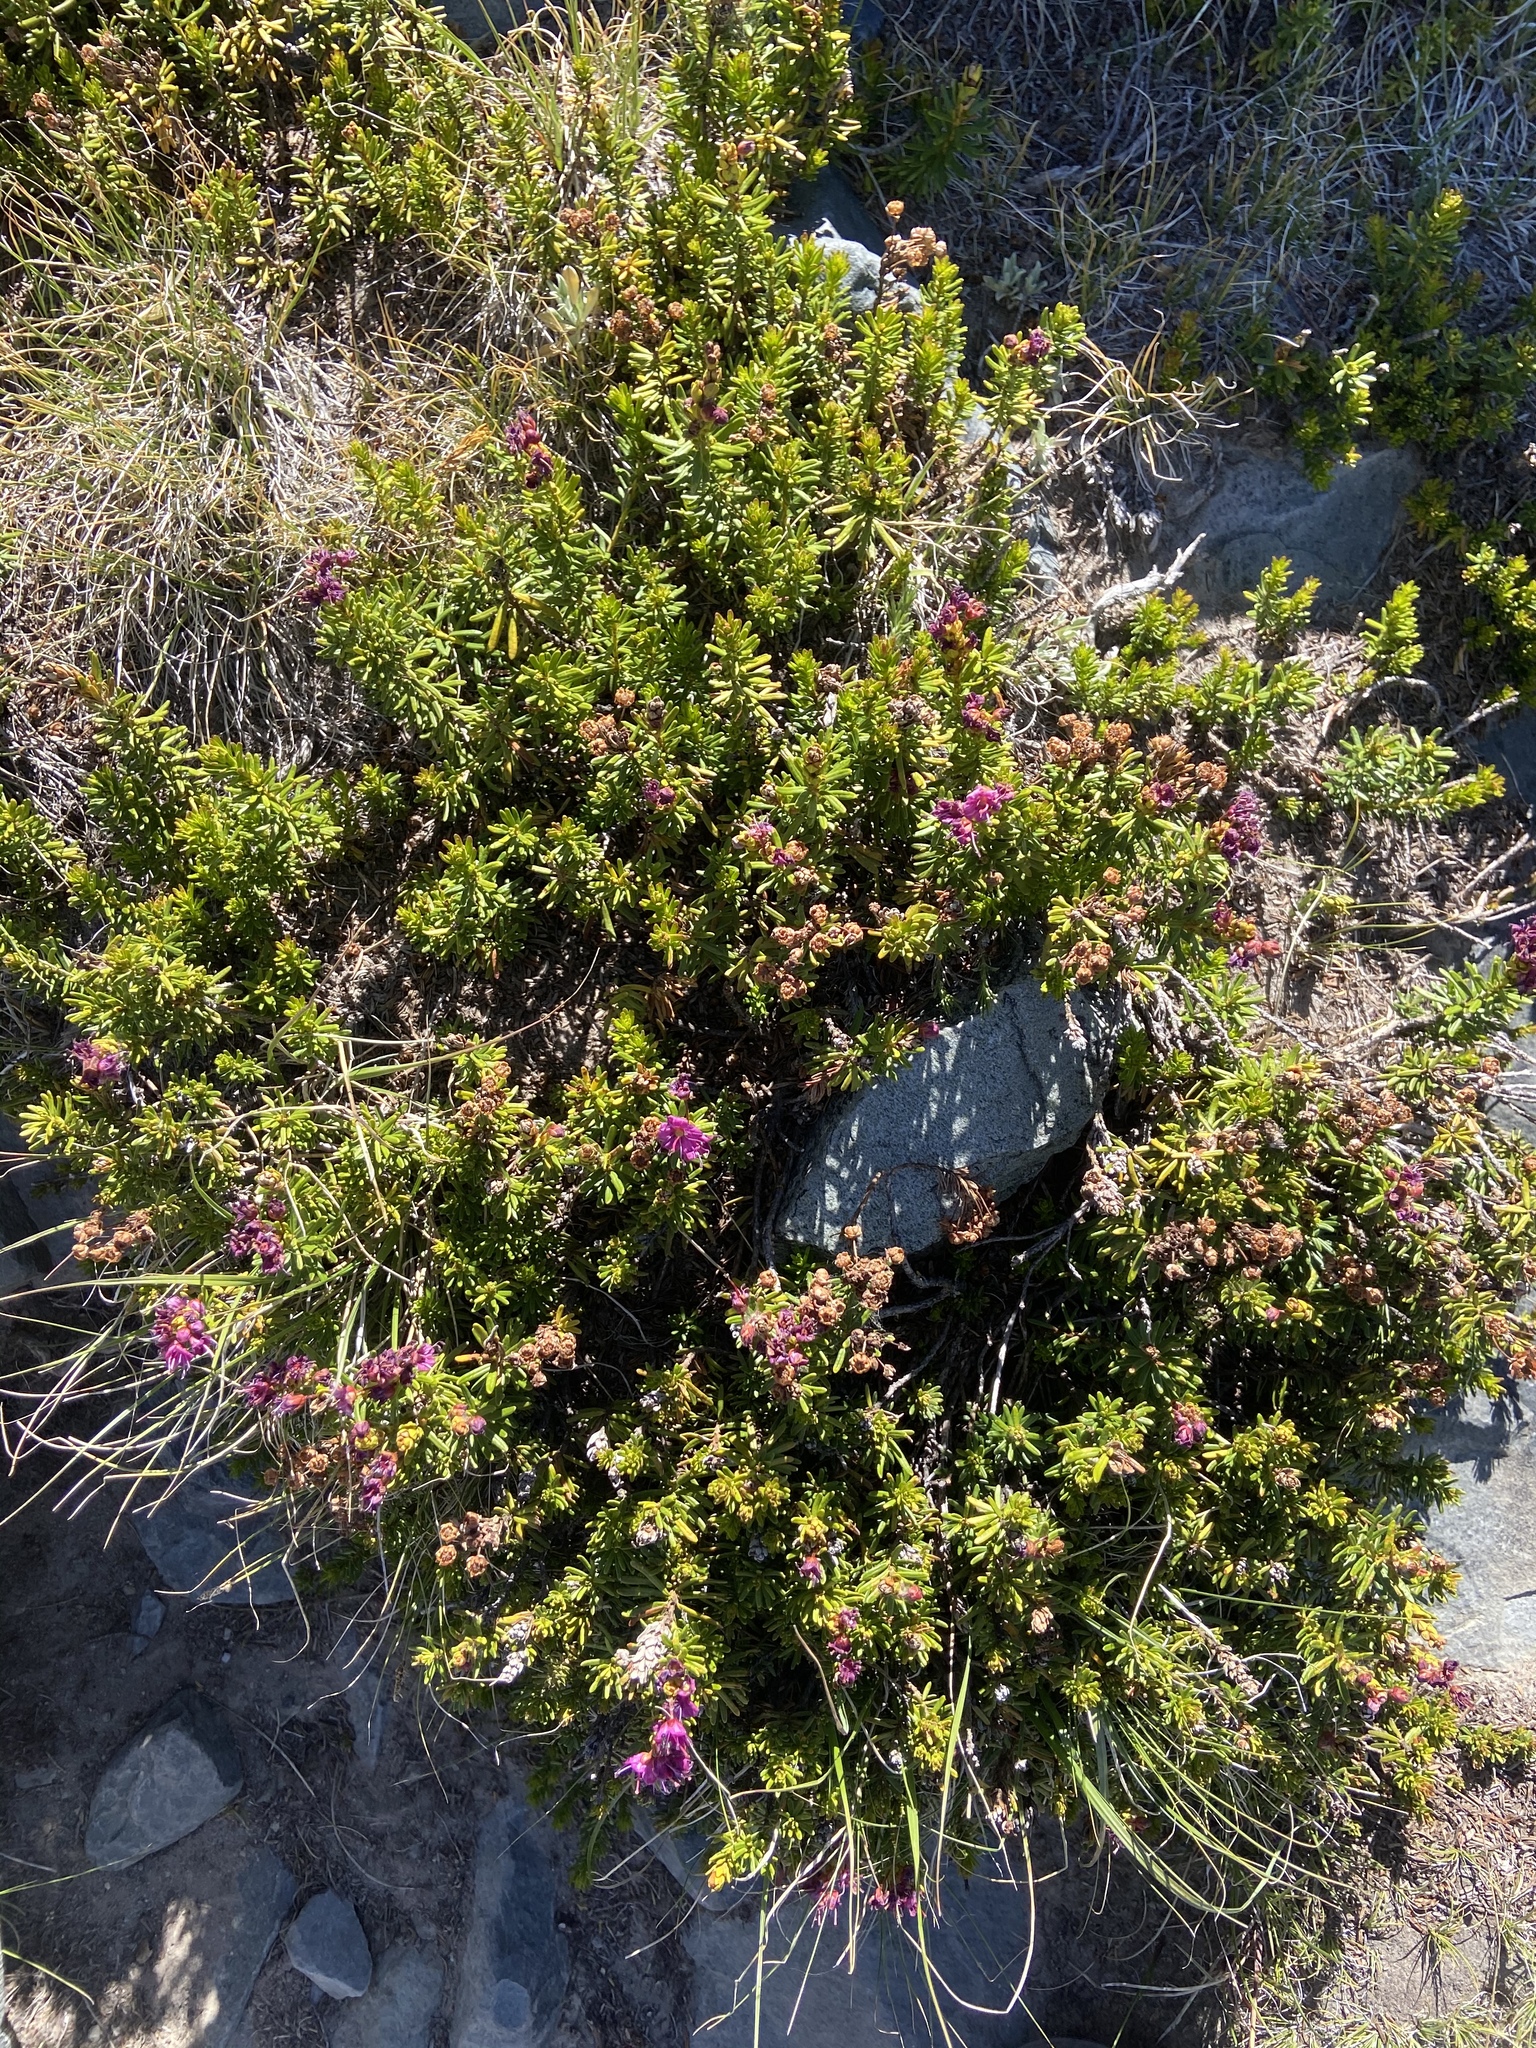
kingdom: Plantae
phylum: Tracheophyta
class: Magnoliopsida
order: Ericales
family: Ericaceae
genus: Phyllodoce
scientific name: Phyllodoce breweri
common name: Brewer's mountain-heather
